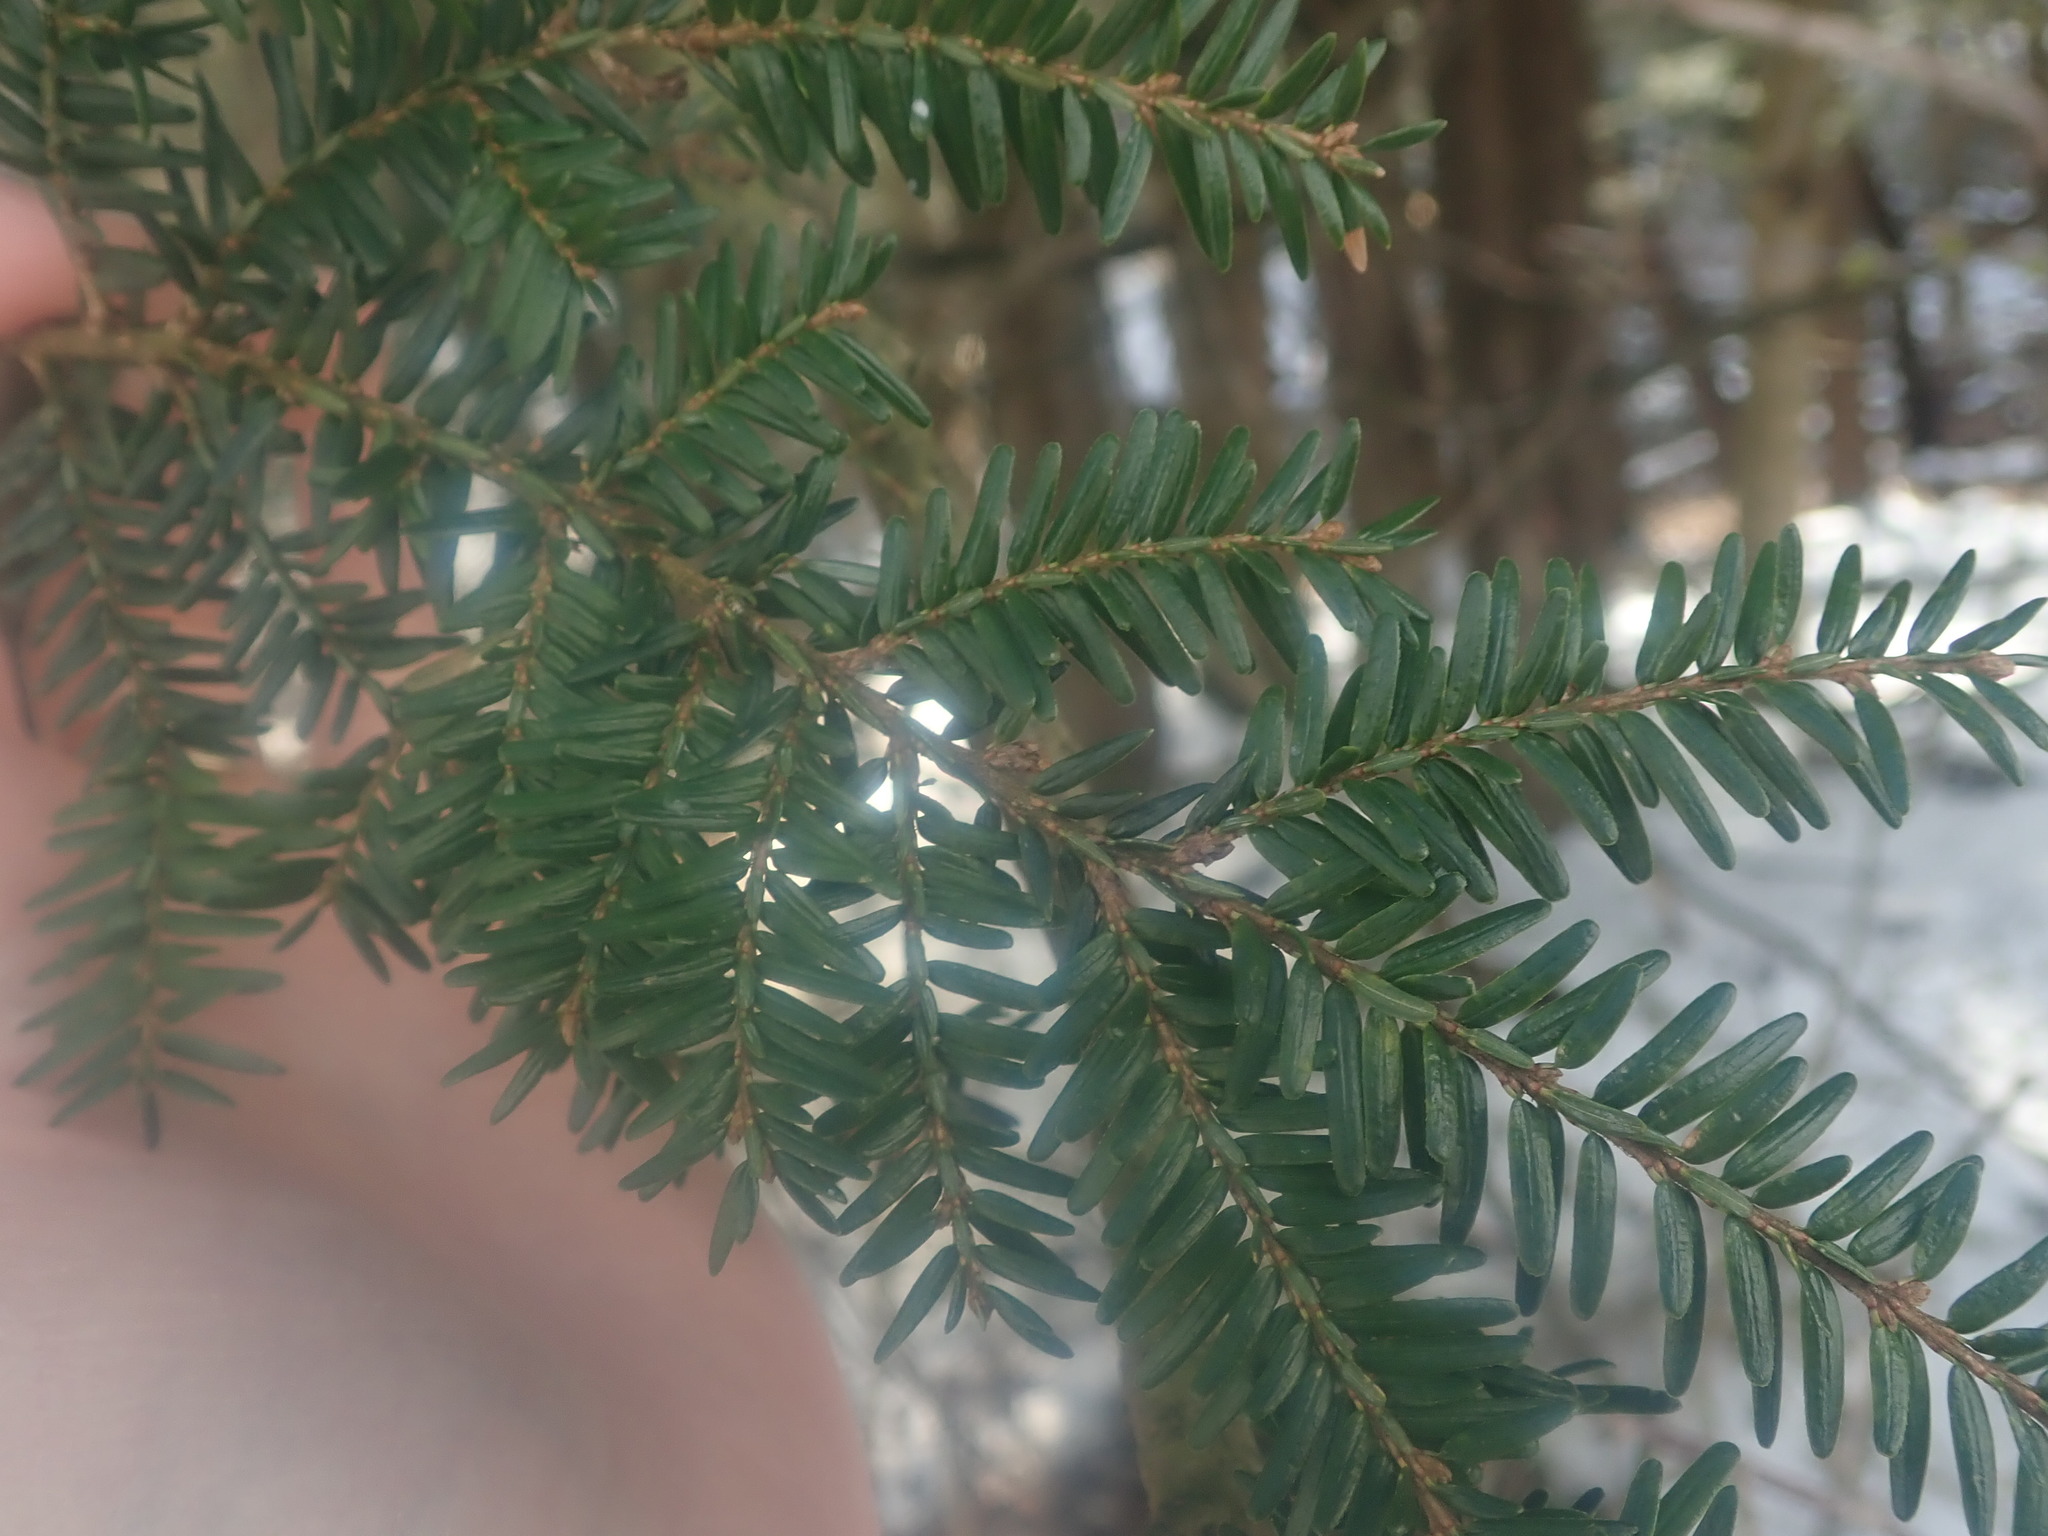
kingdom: Plantae
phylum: Tracheophyta
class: Pinopsida
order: Pinales
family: Pinaceae
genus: Tsuga
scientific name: Tsuga canadensis
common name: Eastern hemlock
